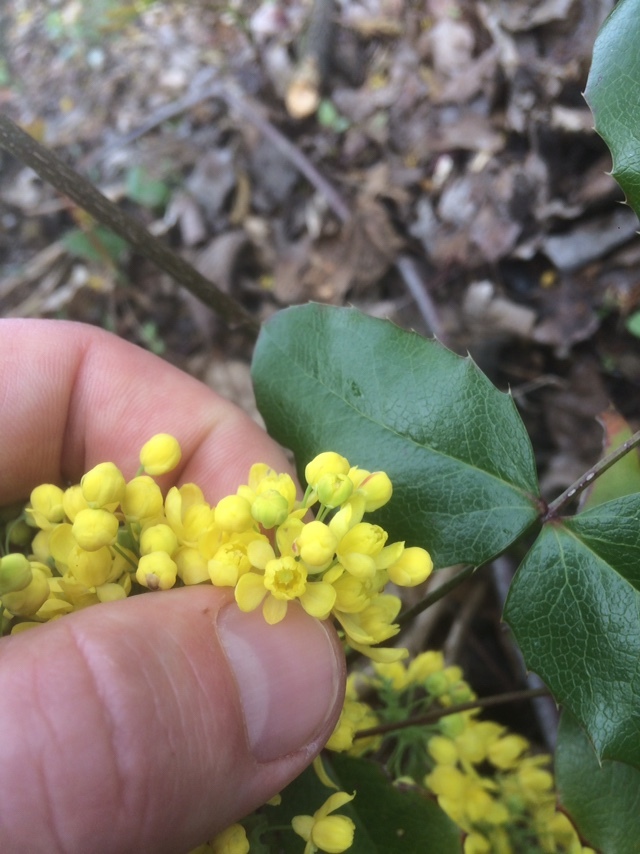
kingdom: Plantae
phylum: Tracheophyta
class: Magnoliopsida
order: Ranunculales
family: Berberidaceae
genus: Mahonia
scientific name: Mahonia aquifolium
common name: Oregon-grape
